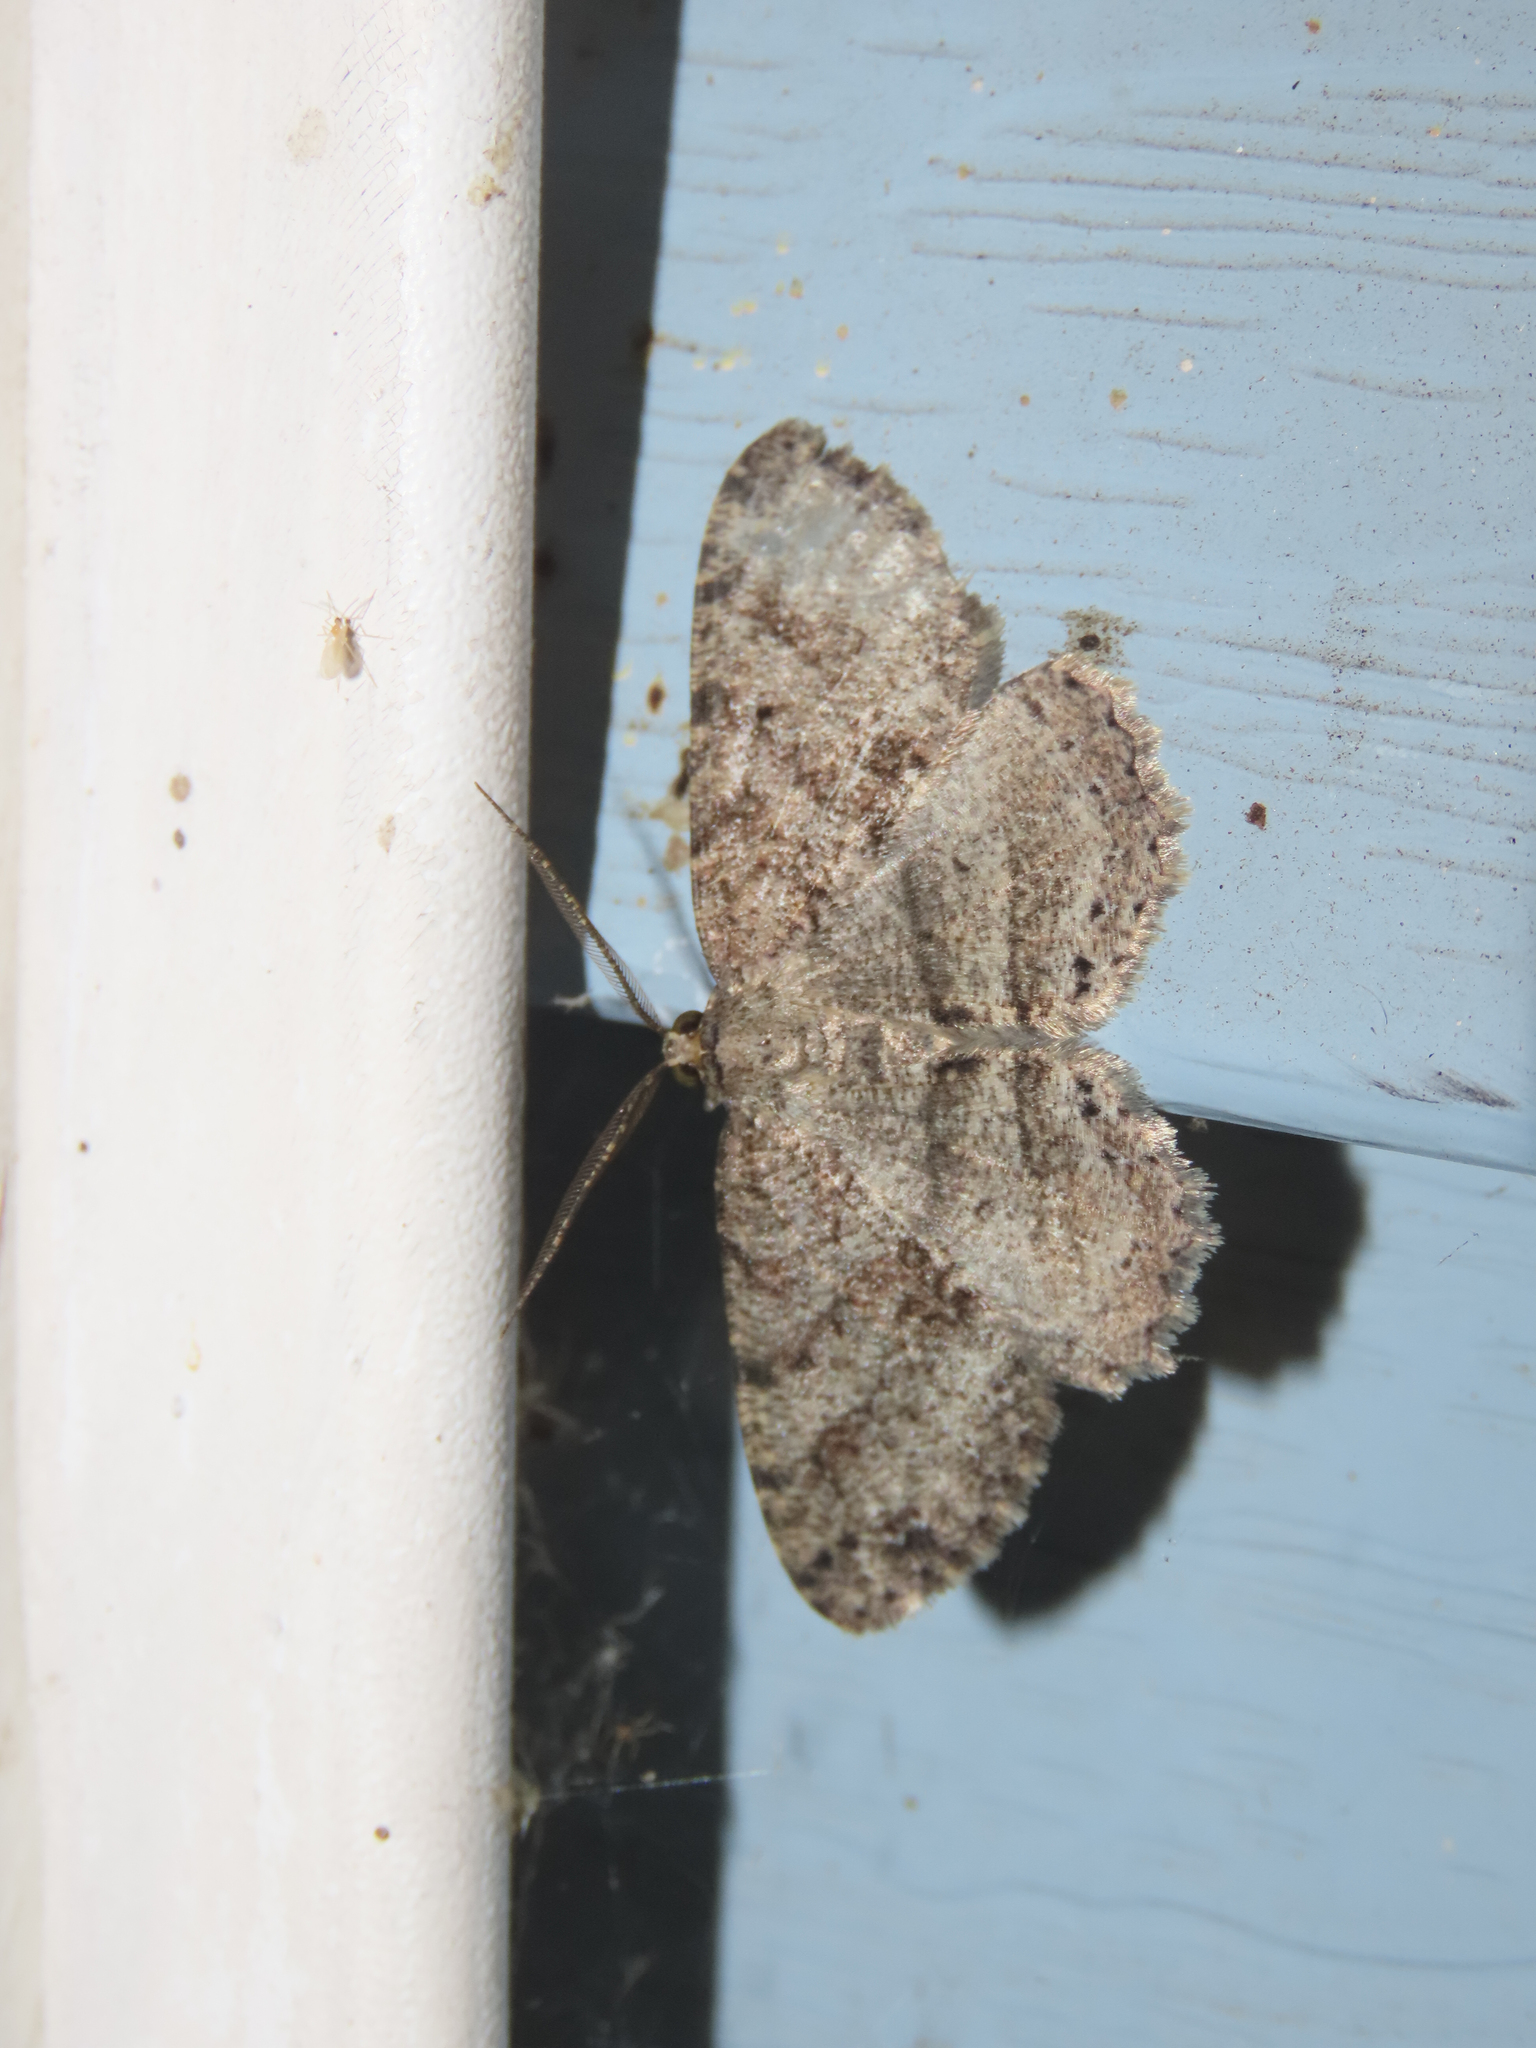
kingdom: Animalia
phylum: Arthropoda
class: Insecta
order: Lepidoptera
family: Geometridae
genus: Melanolophia
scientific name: Melanolophia canadaria
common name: Canadian melanolophia
